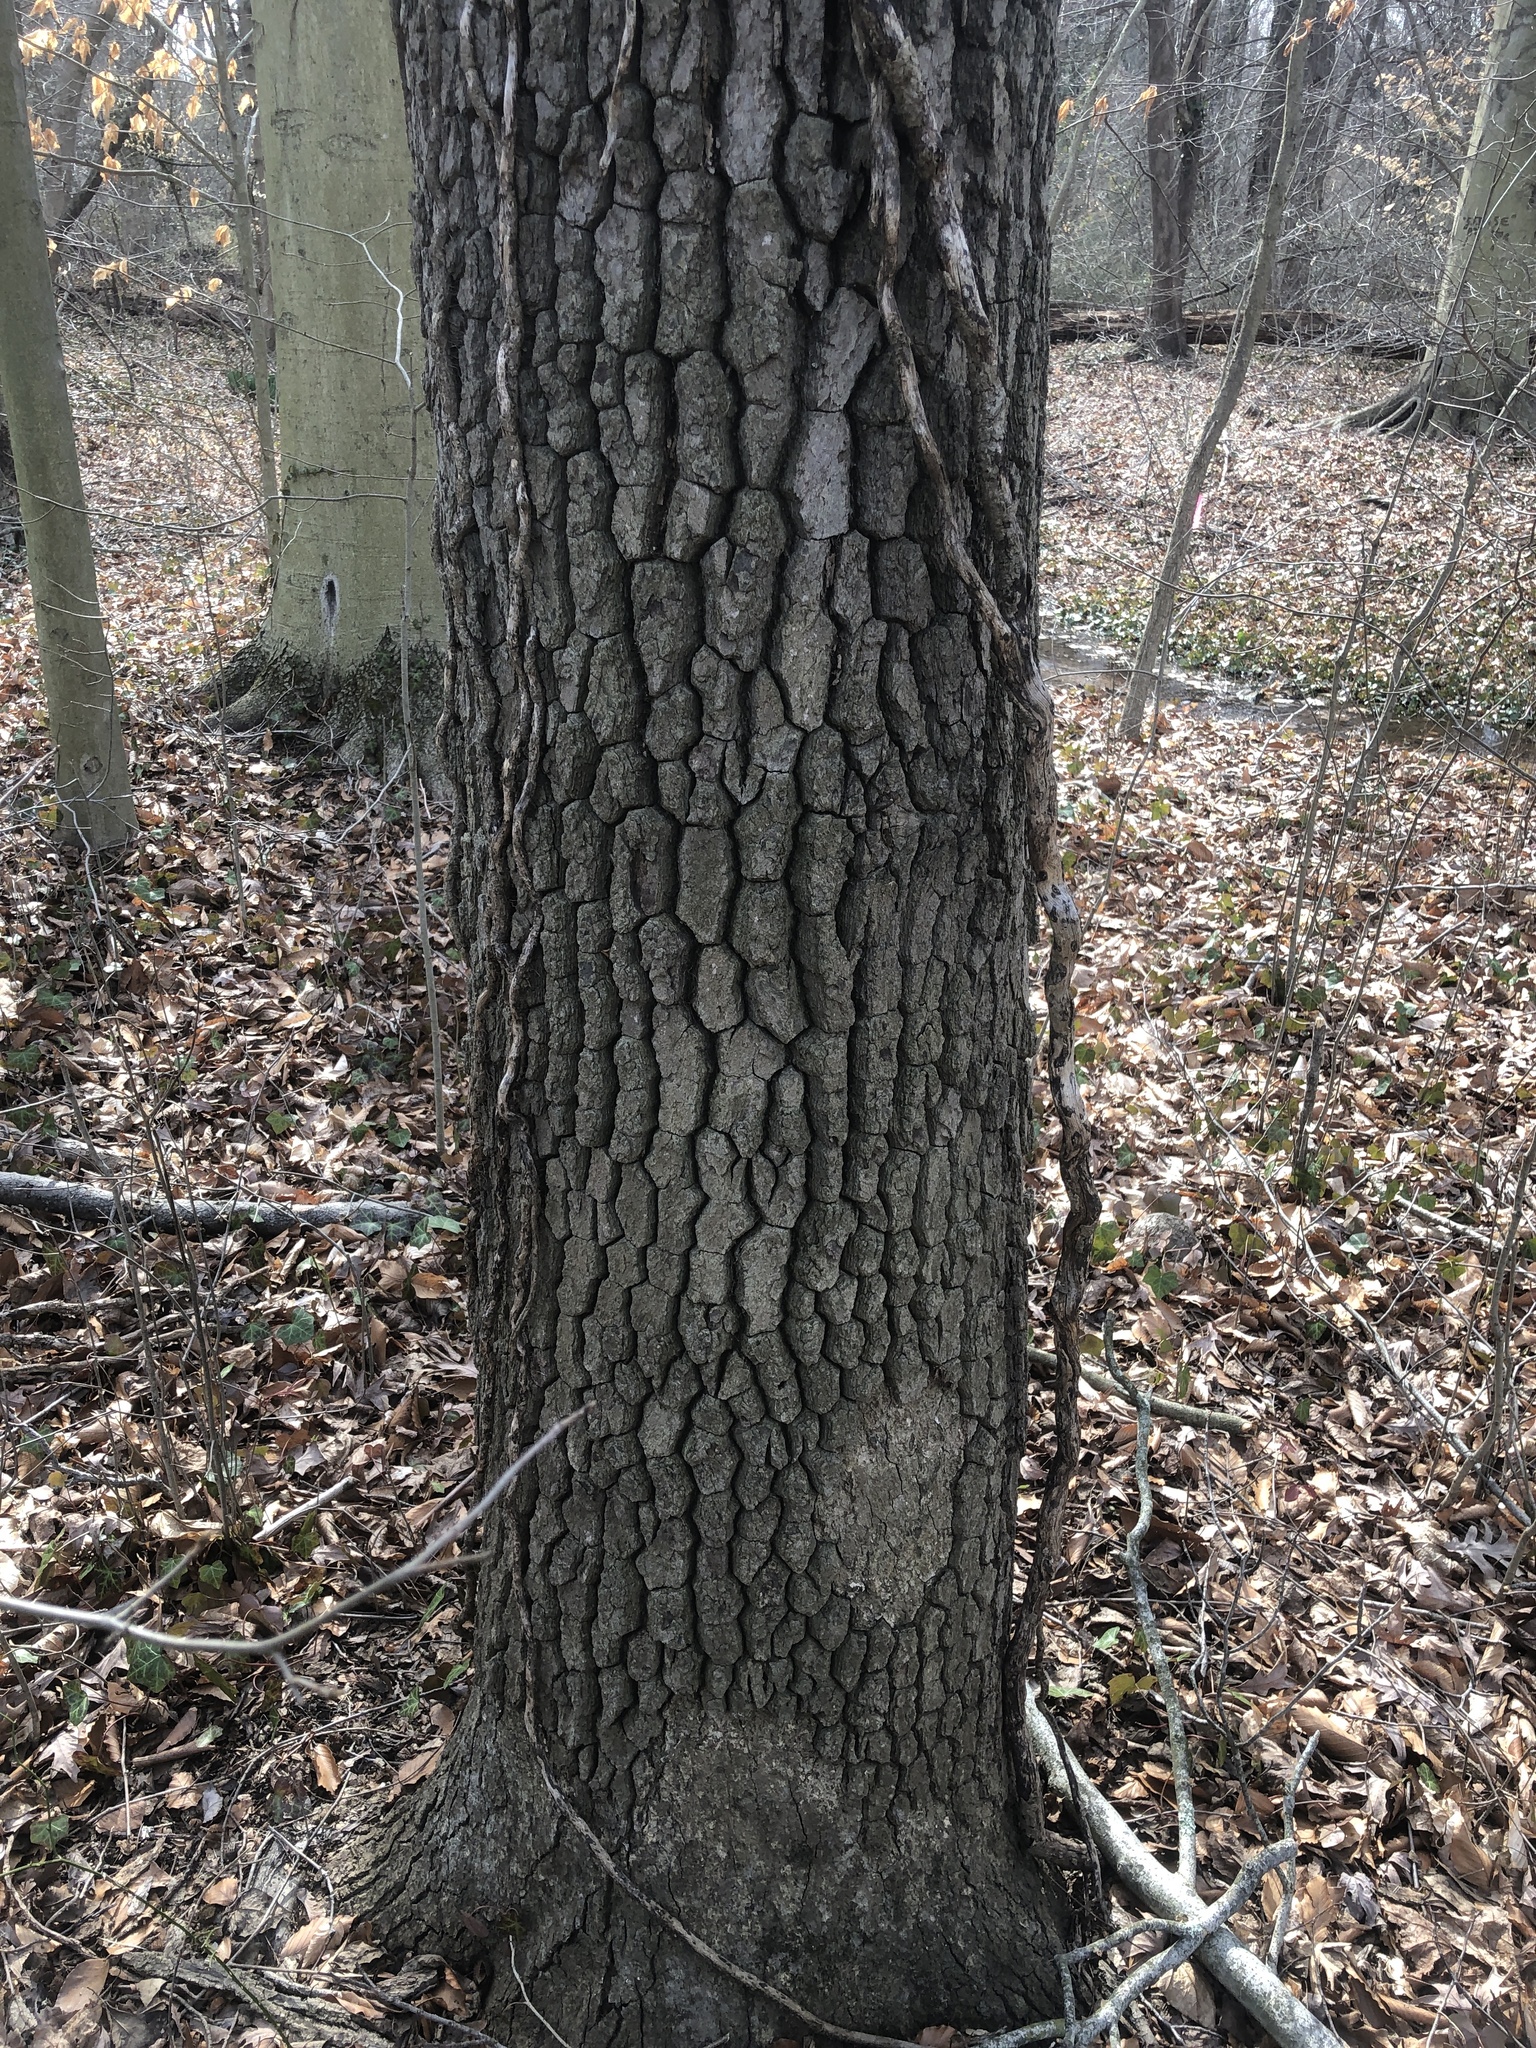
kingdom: Plantae
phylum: Tracheophyta
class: Magnoliopsida
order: Cornales
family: Nyssaceae
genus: Nyssa
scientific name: Nyssa sylvatica
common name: Black tupelo
